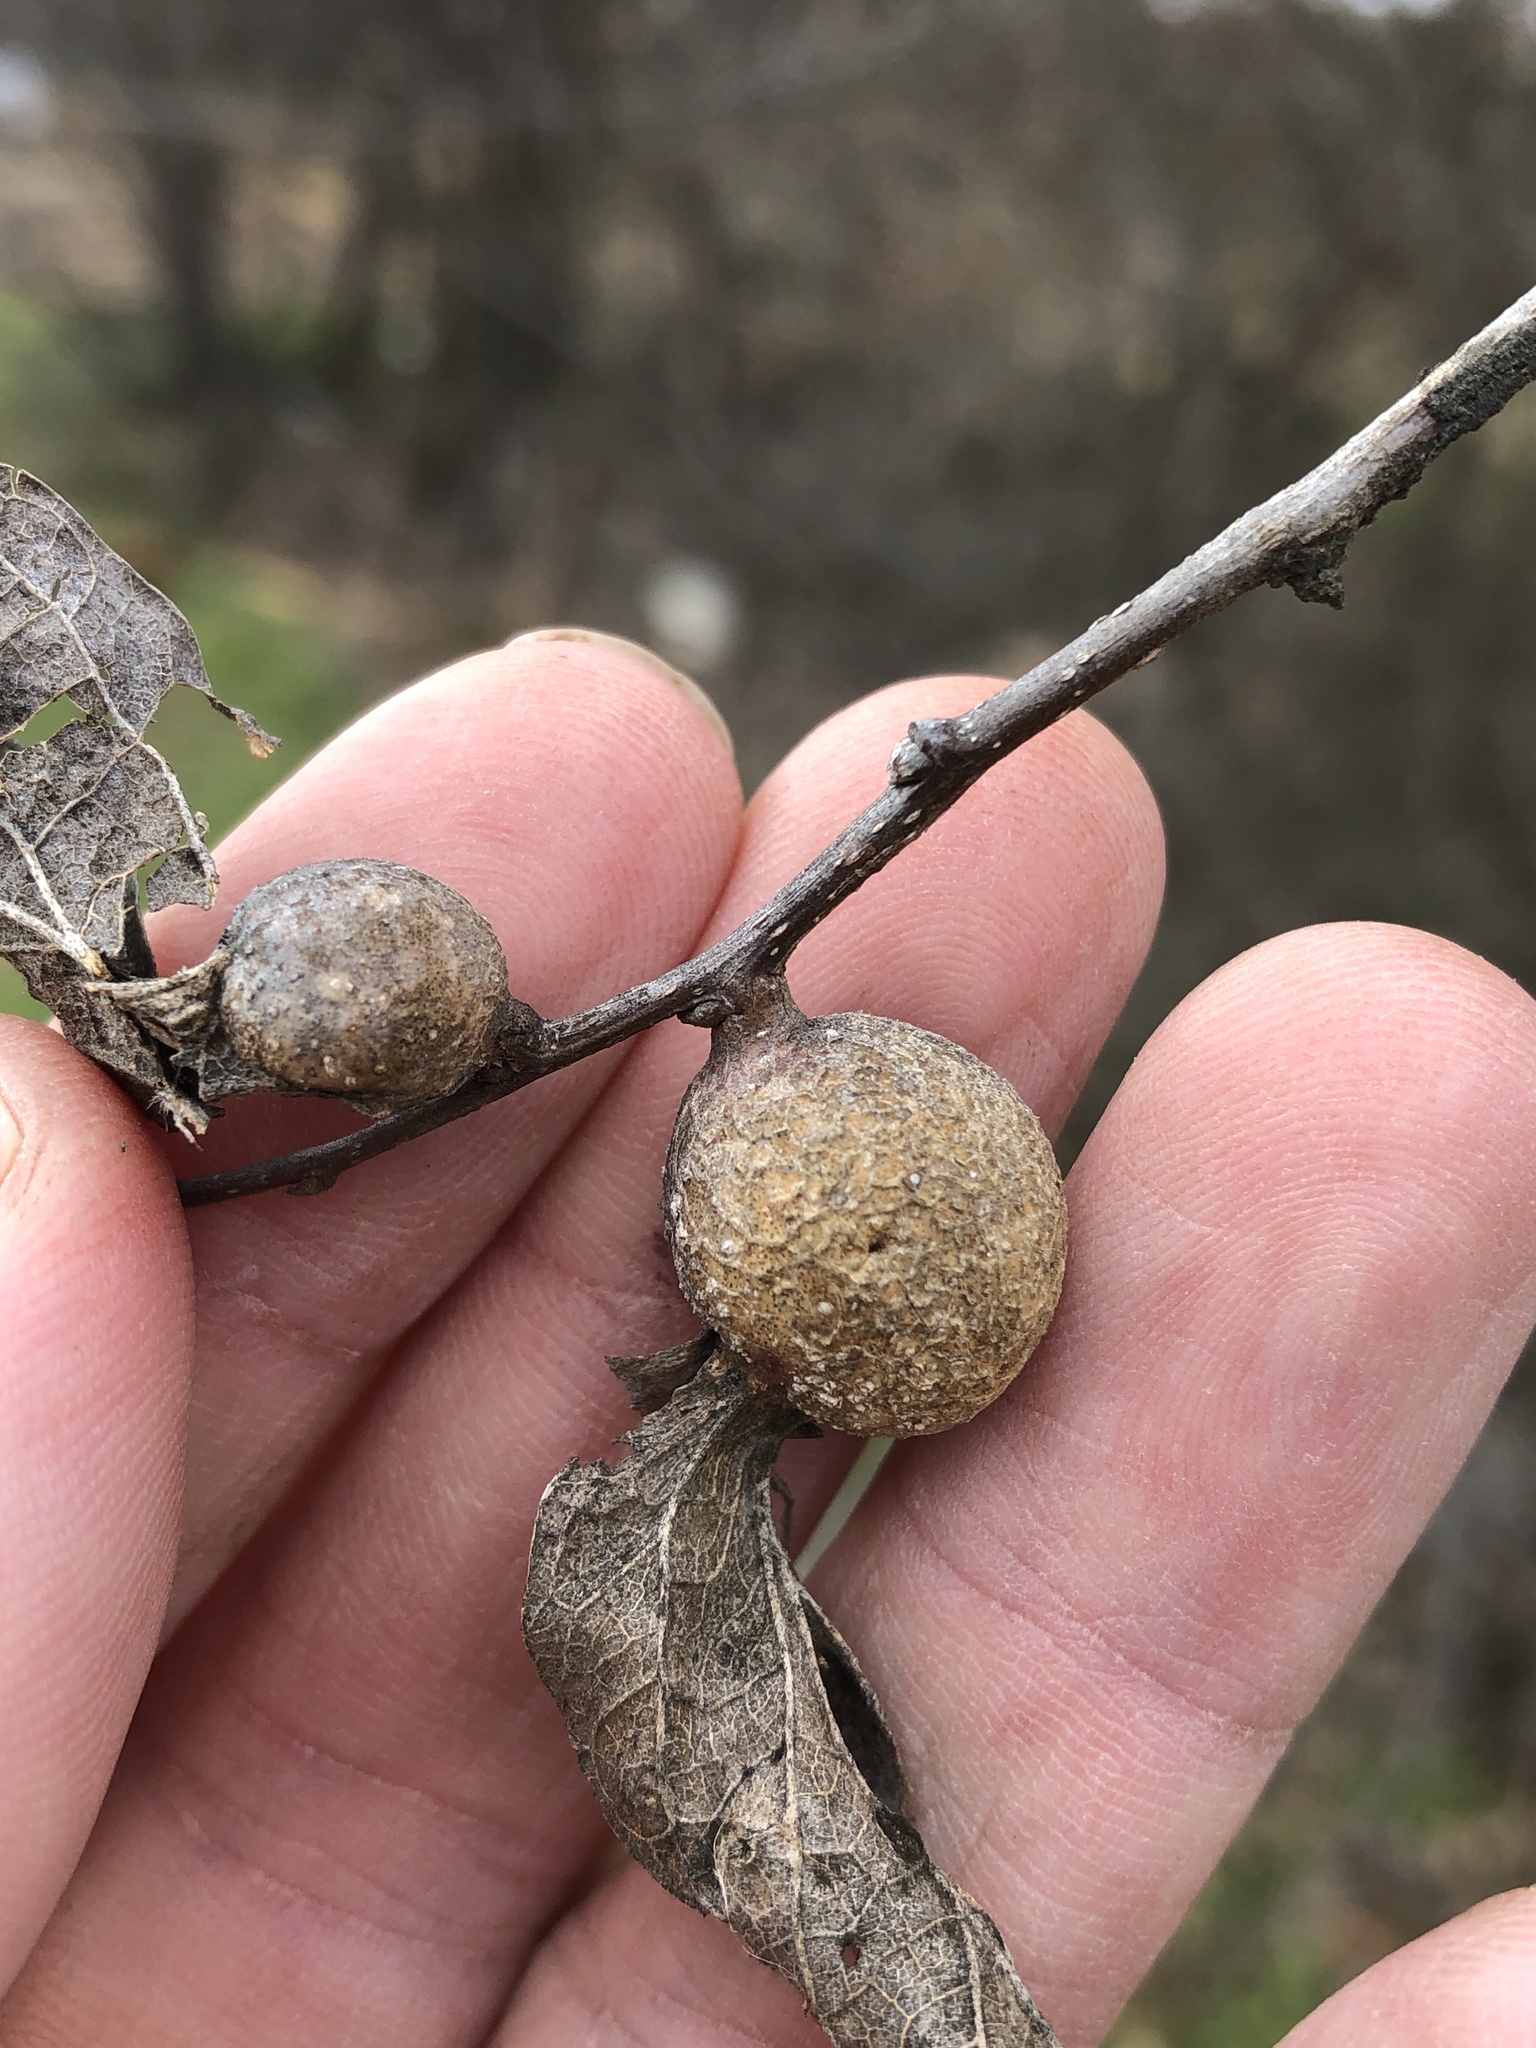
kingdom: Animalia
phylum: Arthropoda
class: Insecta
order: Hemiptera
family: Aphalaridae
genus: Pachypsylla
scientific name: Pachypsylla venusta
